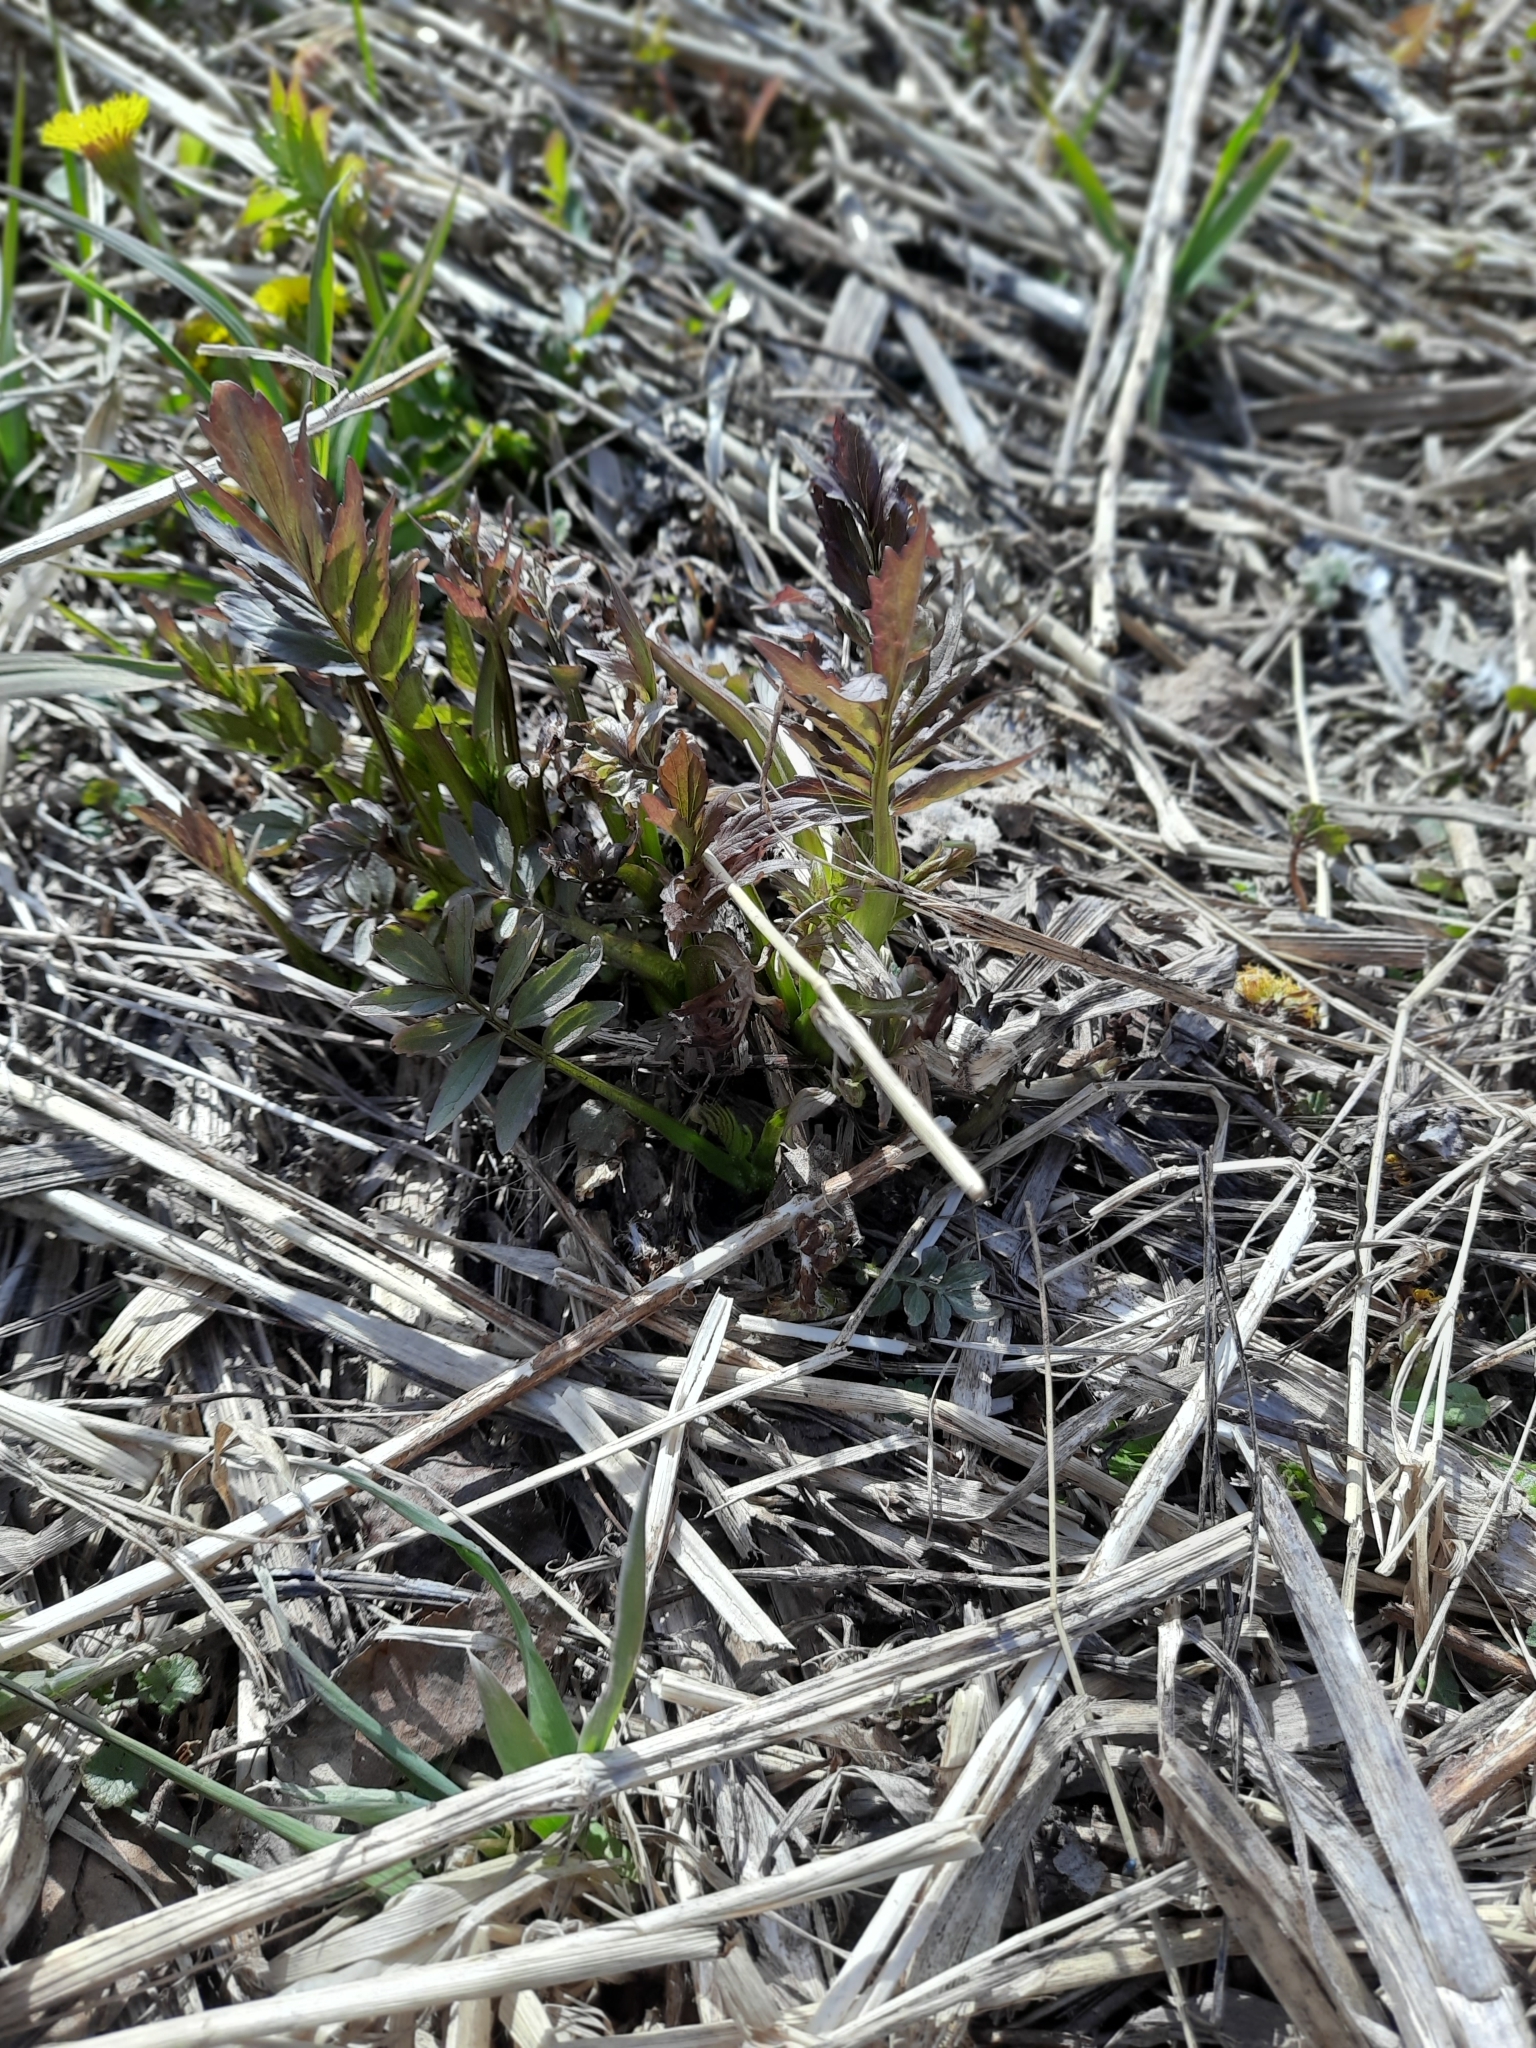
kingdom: Plantae
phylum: Tracheophyta
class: Magnoliopsida
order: Dipsacales
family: Caprifoliaceae
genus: Valeriana
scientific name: Valeriana wolgensis
